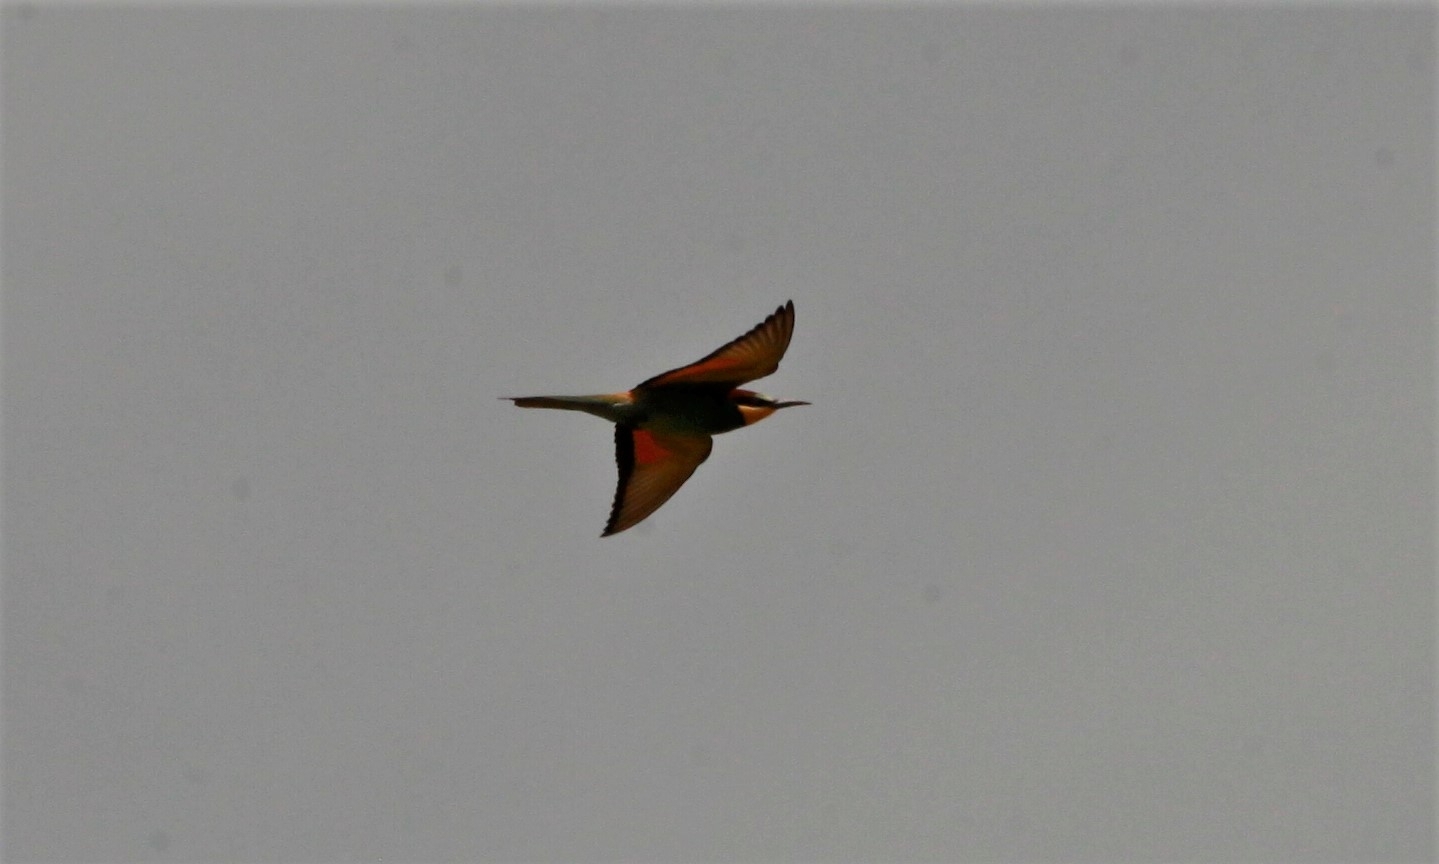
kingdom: Animalia
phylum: Chordata
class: Aves
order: Coraciiformes
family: Meropidae
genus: Merops
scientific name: Merops apiaster
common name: European bee-eater
